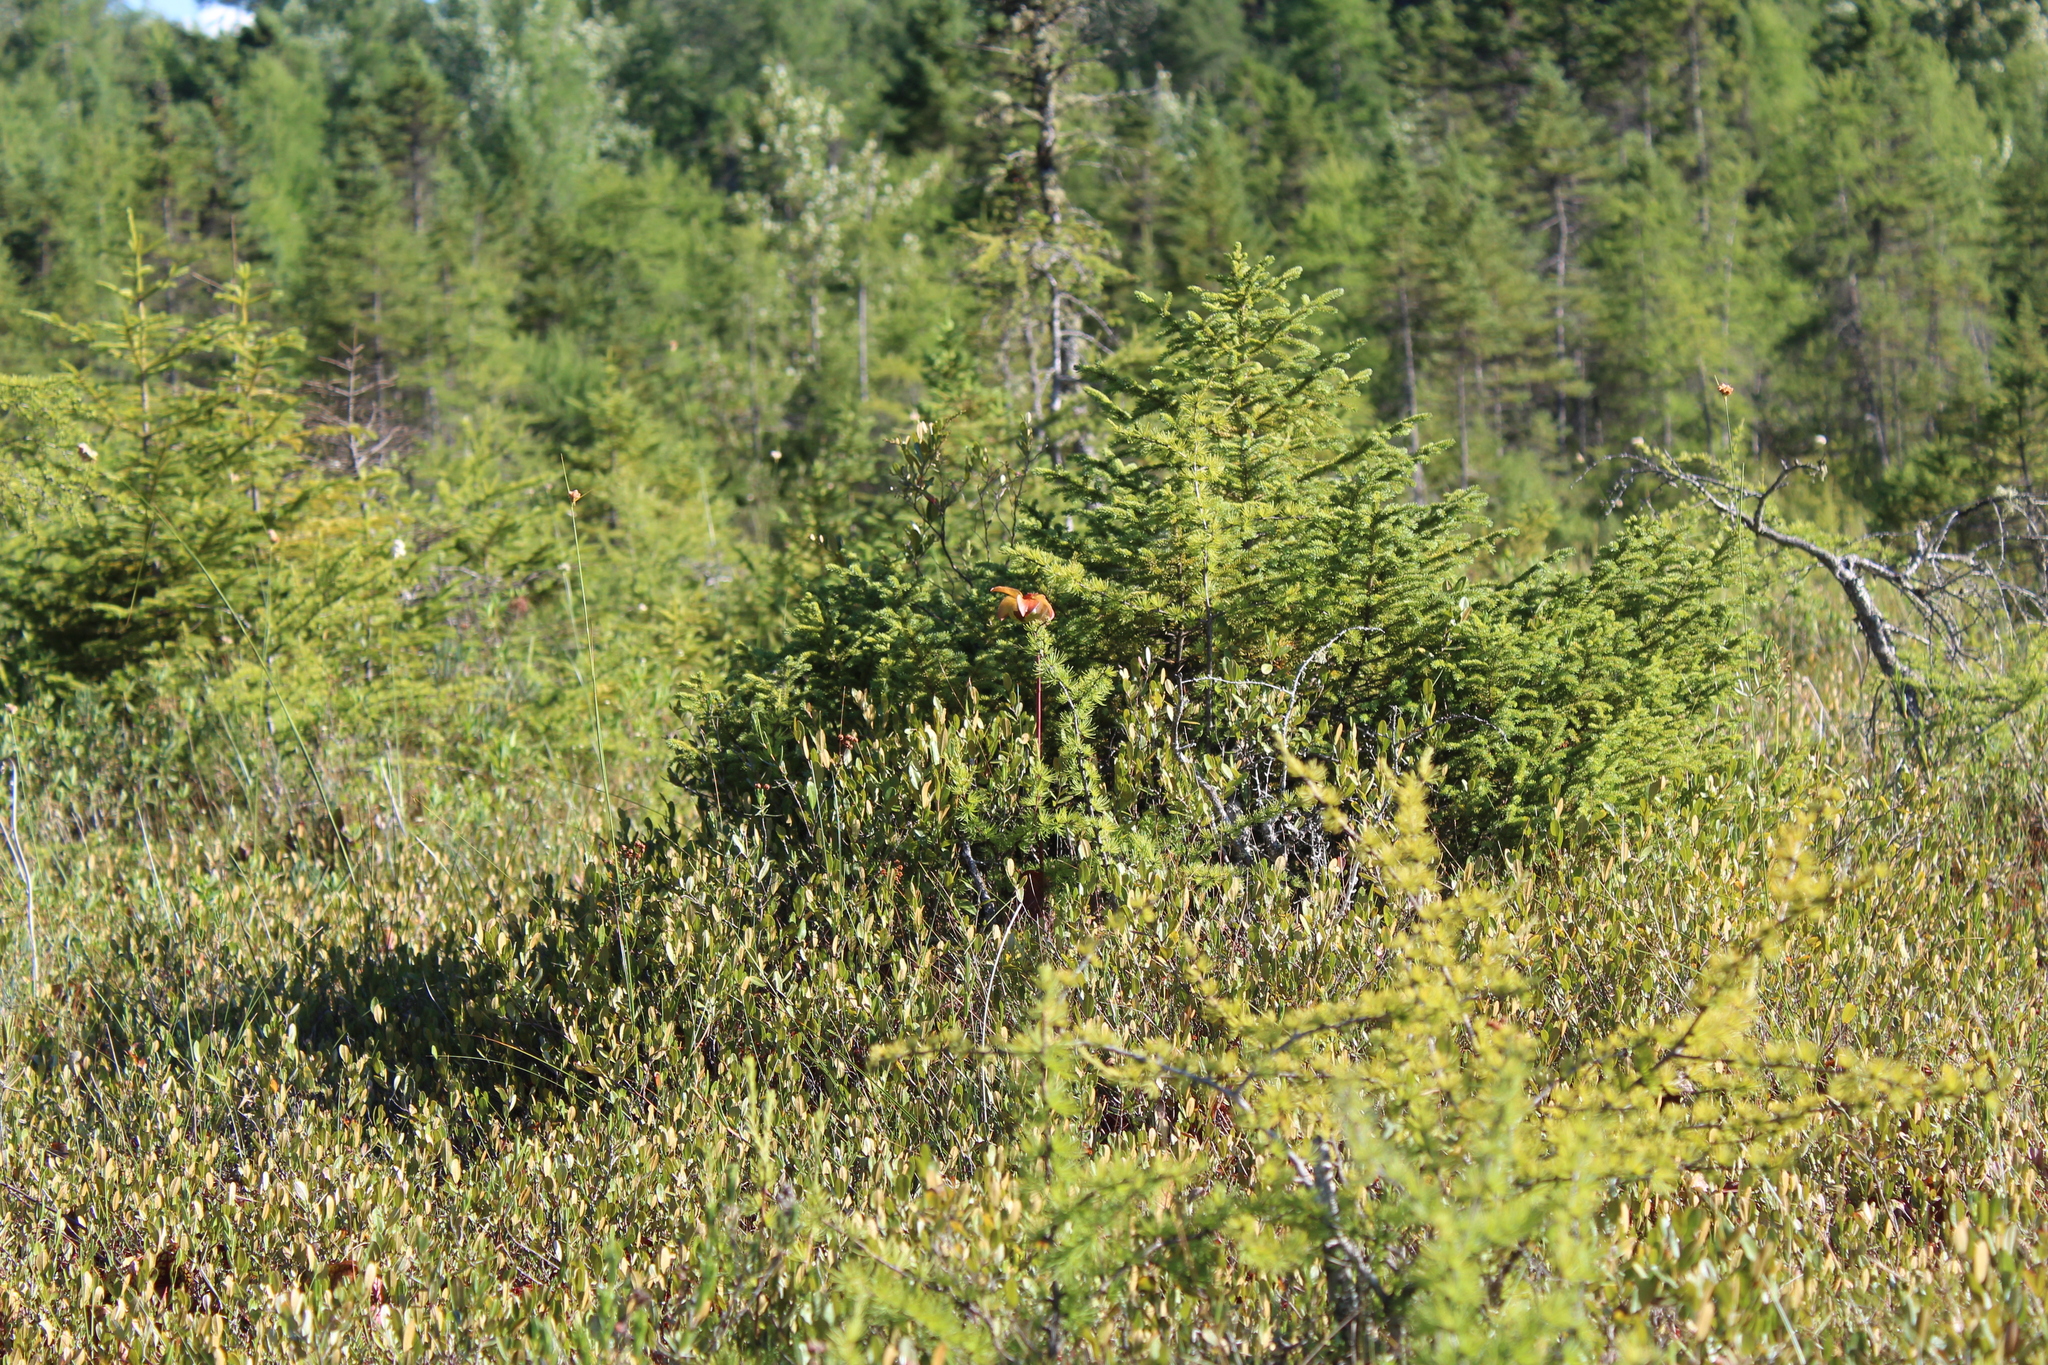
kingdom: Plantae
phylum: Tracheophyta
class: Pinopsida
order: Pinales
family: Pinaceae
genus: Larix
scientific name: Larix laricina
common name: American larch
